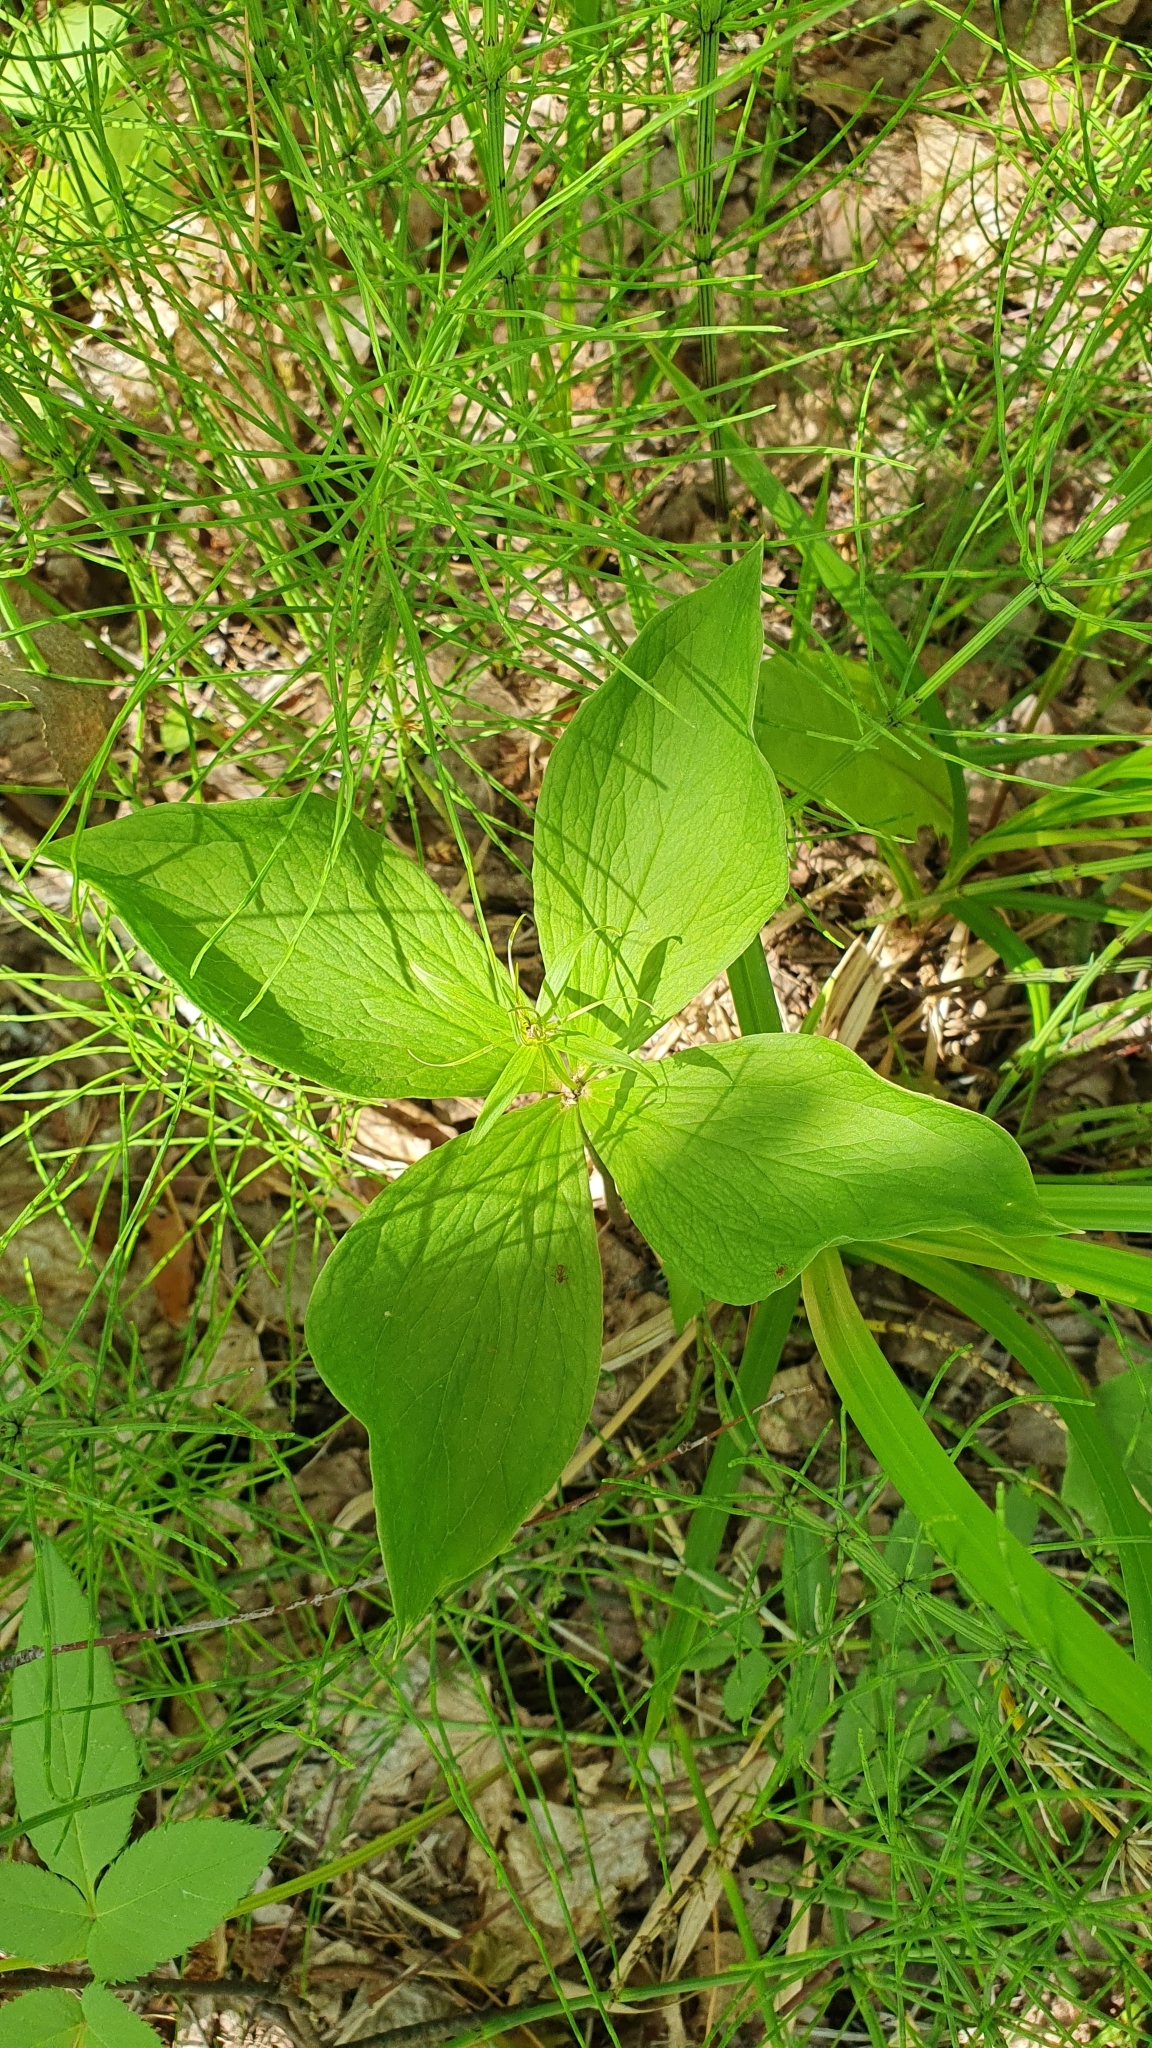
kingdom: Plantae
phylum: Tracheophyta
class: Liliopsida
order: Liliales
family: Melanthiaceae
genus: Paris
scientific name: Paris quadrifolia
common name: Herb-paris
